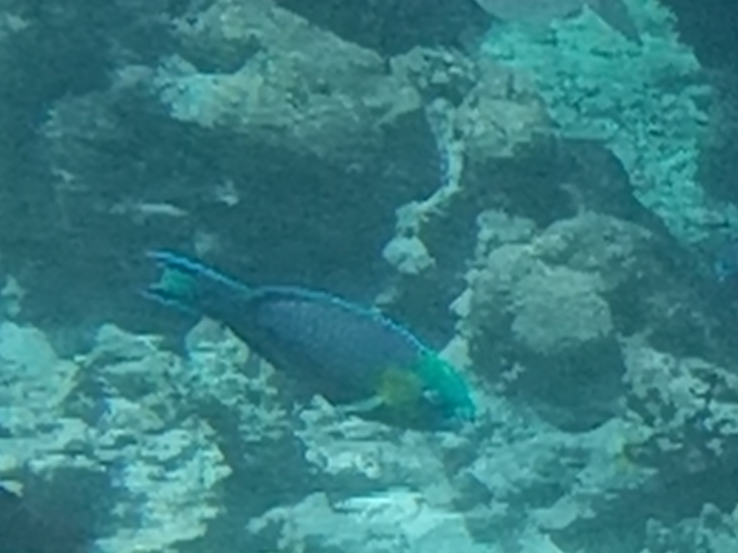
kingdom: Animalia
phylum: Chordata
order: Perciformes
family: Scaridae
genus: Scarus
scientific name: Scarus spinus
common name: Greensnout parrotfish
